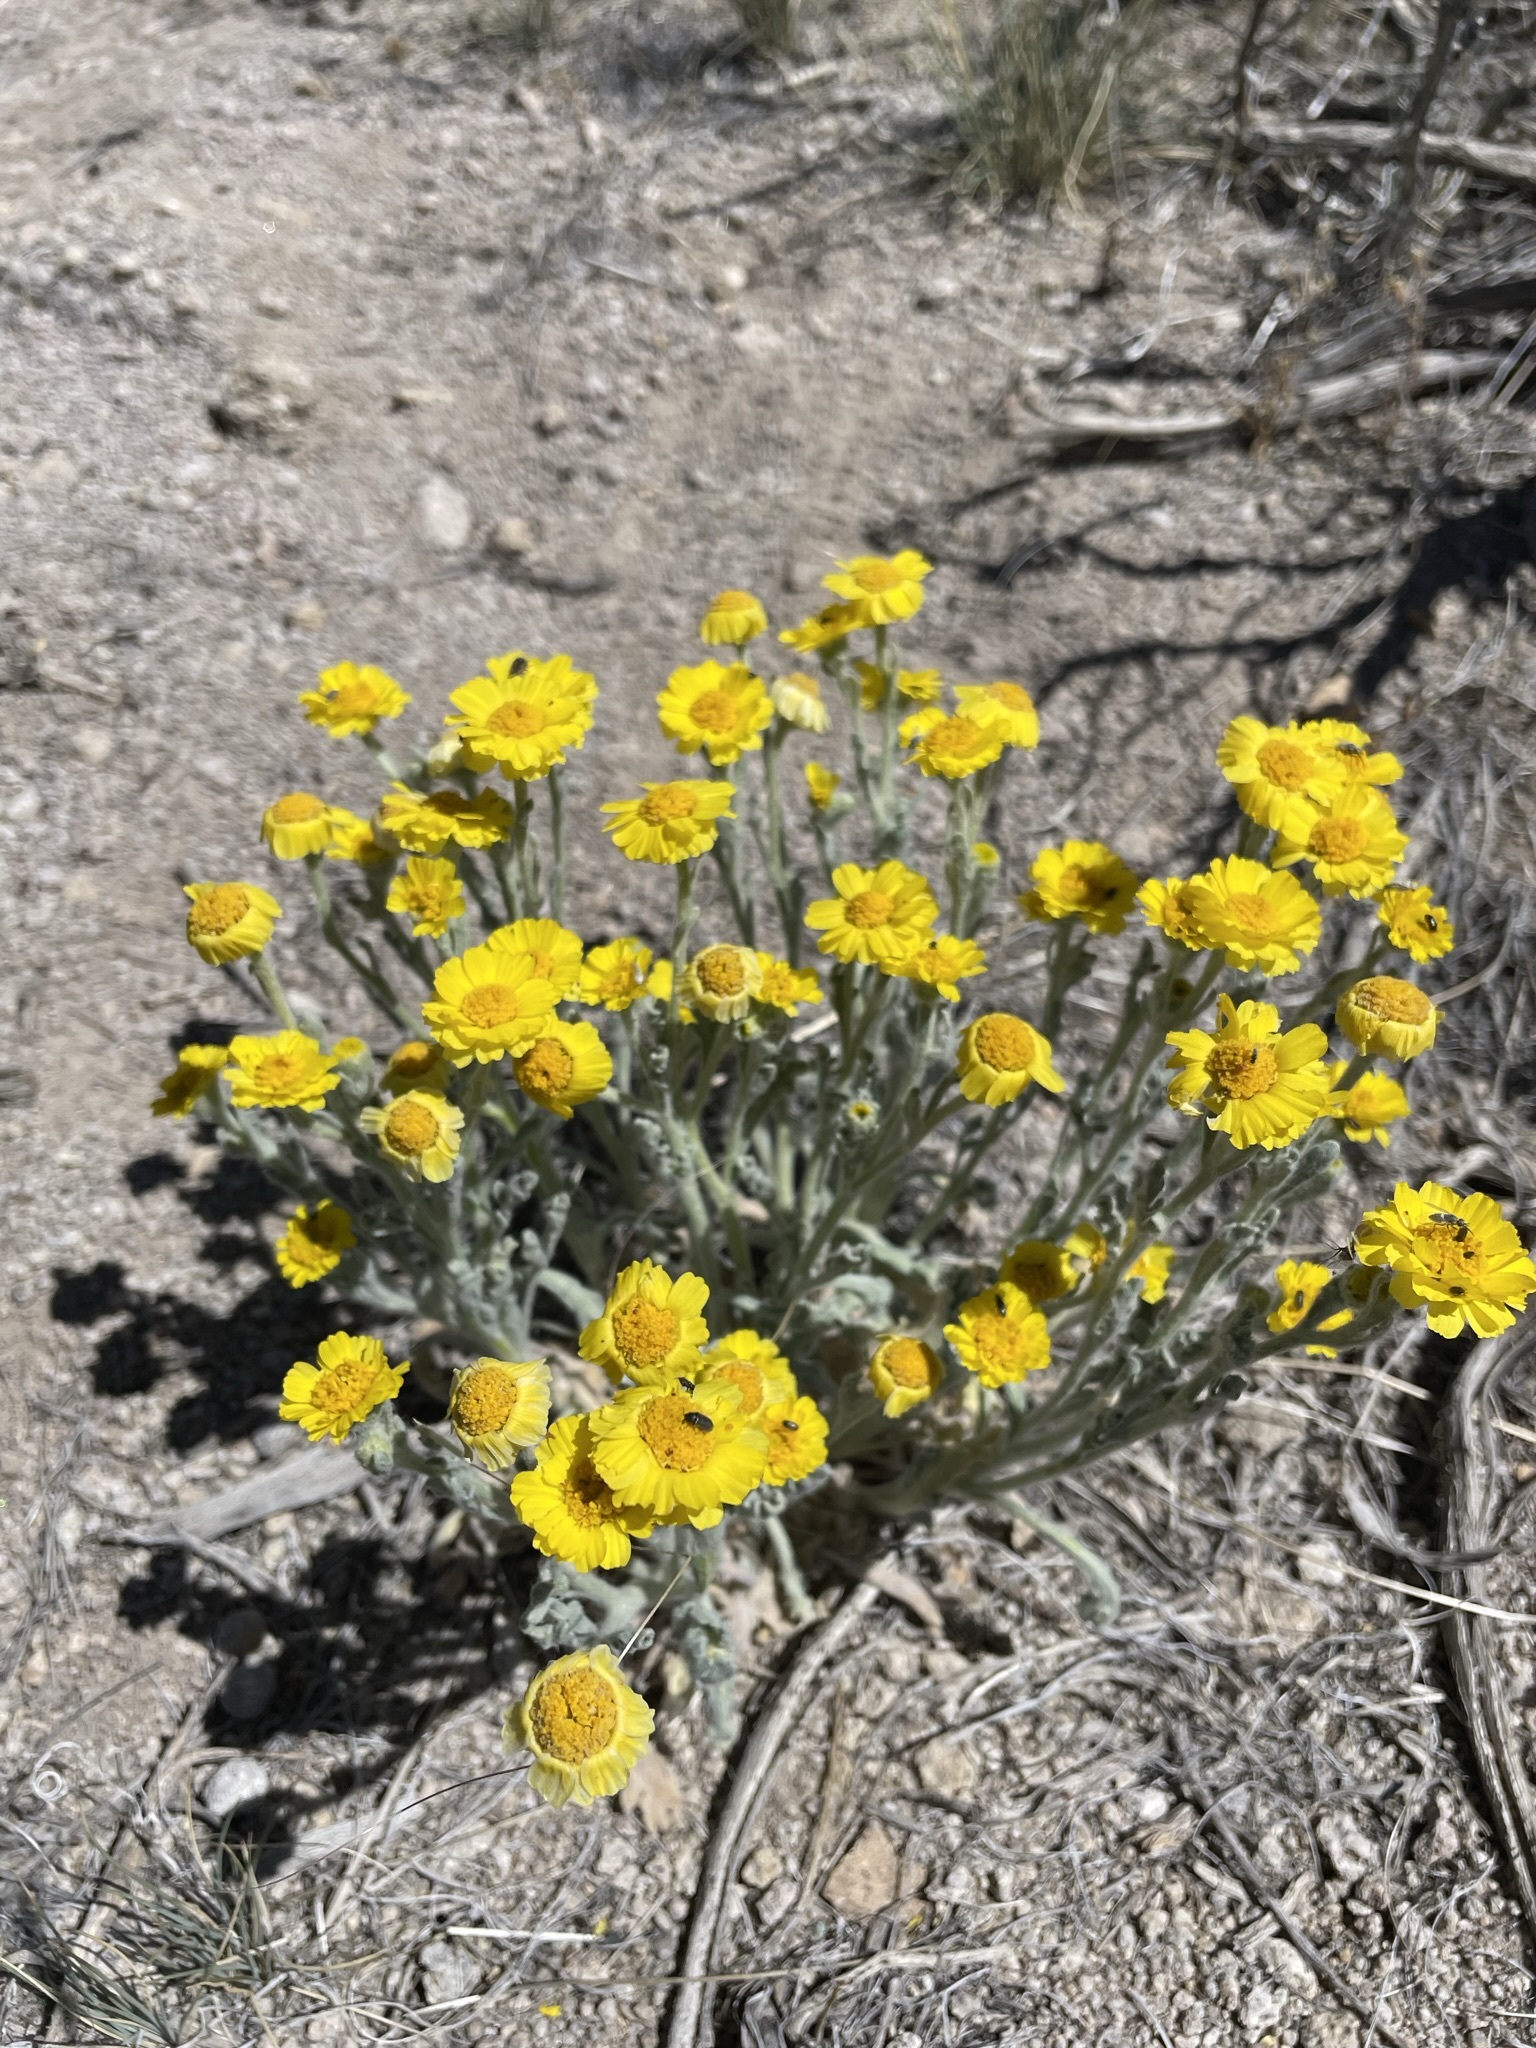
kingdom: Plantae
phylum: Tracheophyta
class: Magnoliopsida
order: Asterales
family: Asteraceae
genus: Baileya
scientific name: Baileya pleniradiata
